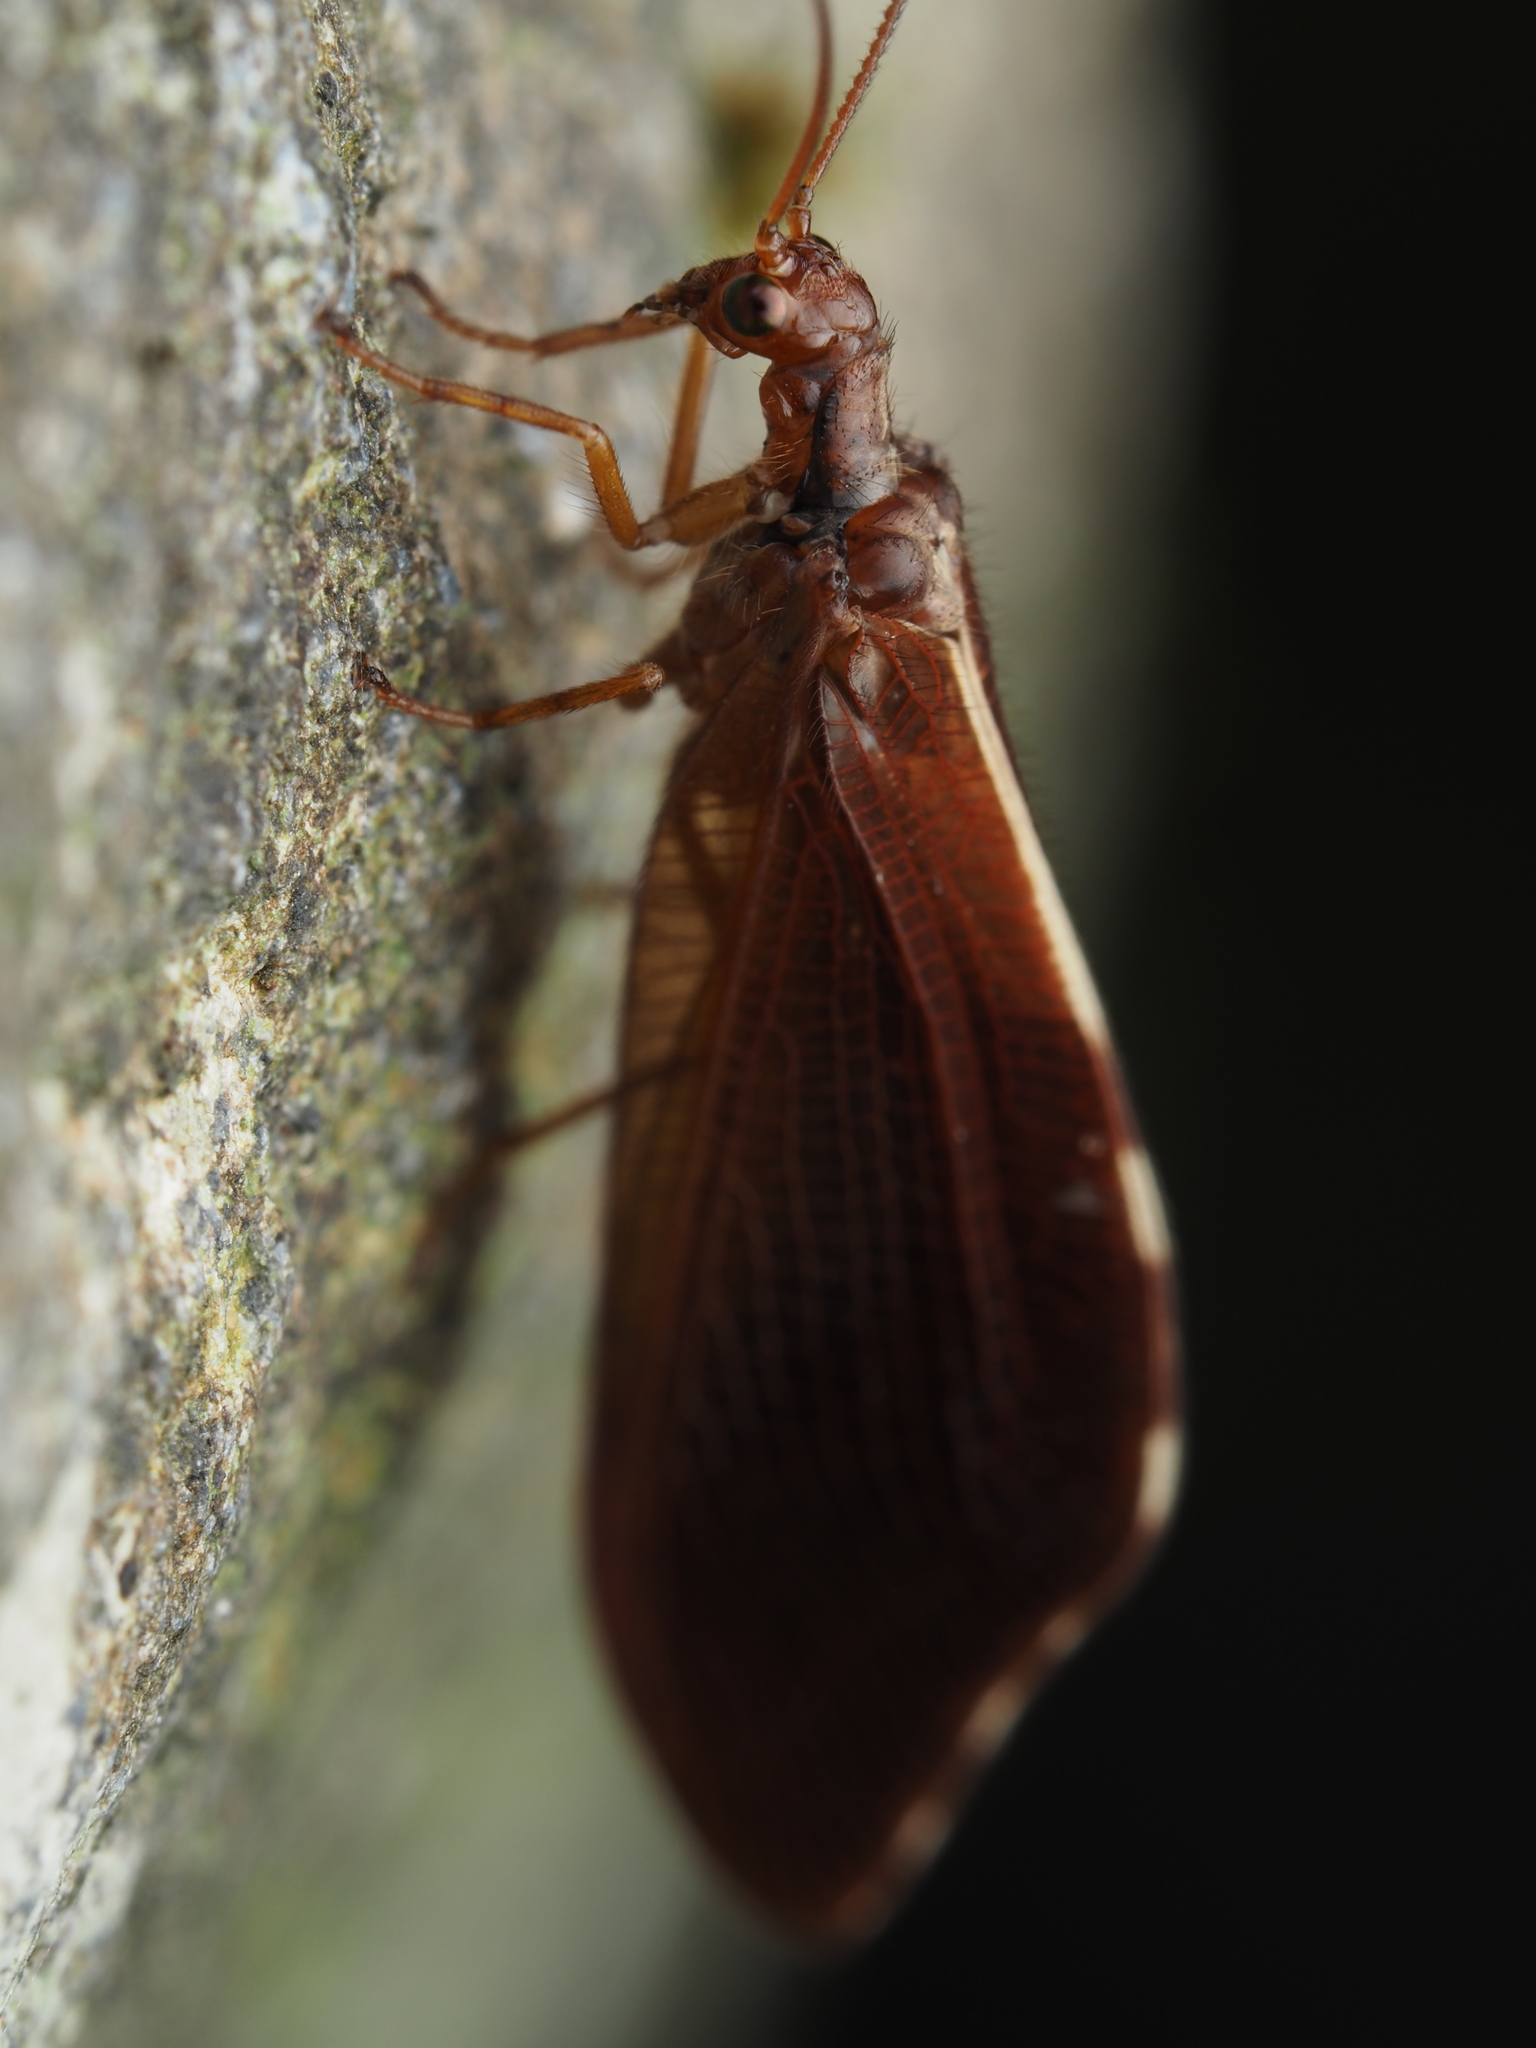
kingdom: Animalia
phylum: Arthropoda
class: Insecta
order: Neuroptera
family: Osmylidae
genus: Euosmylus
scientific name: Euosmylus stellae
